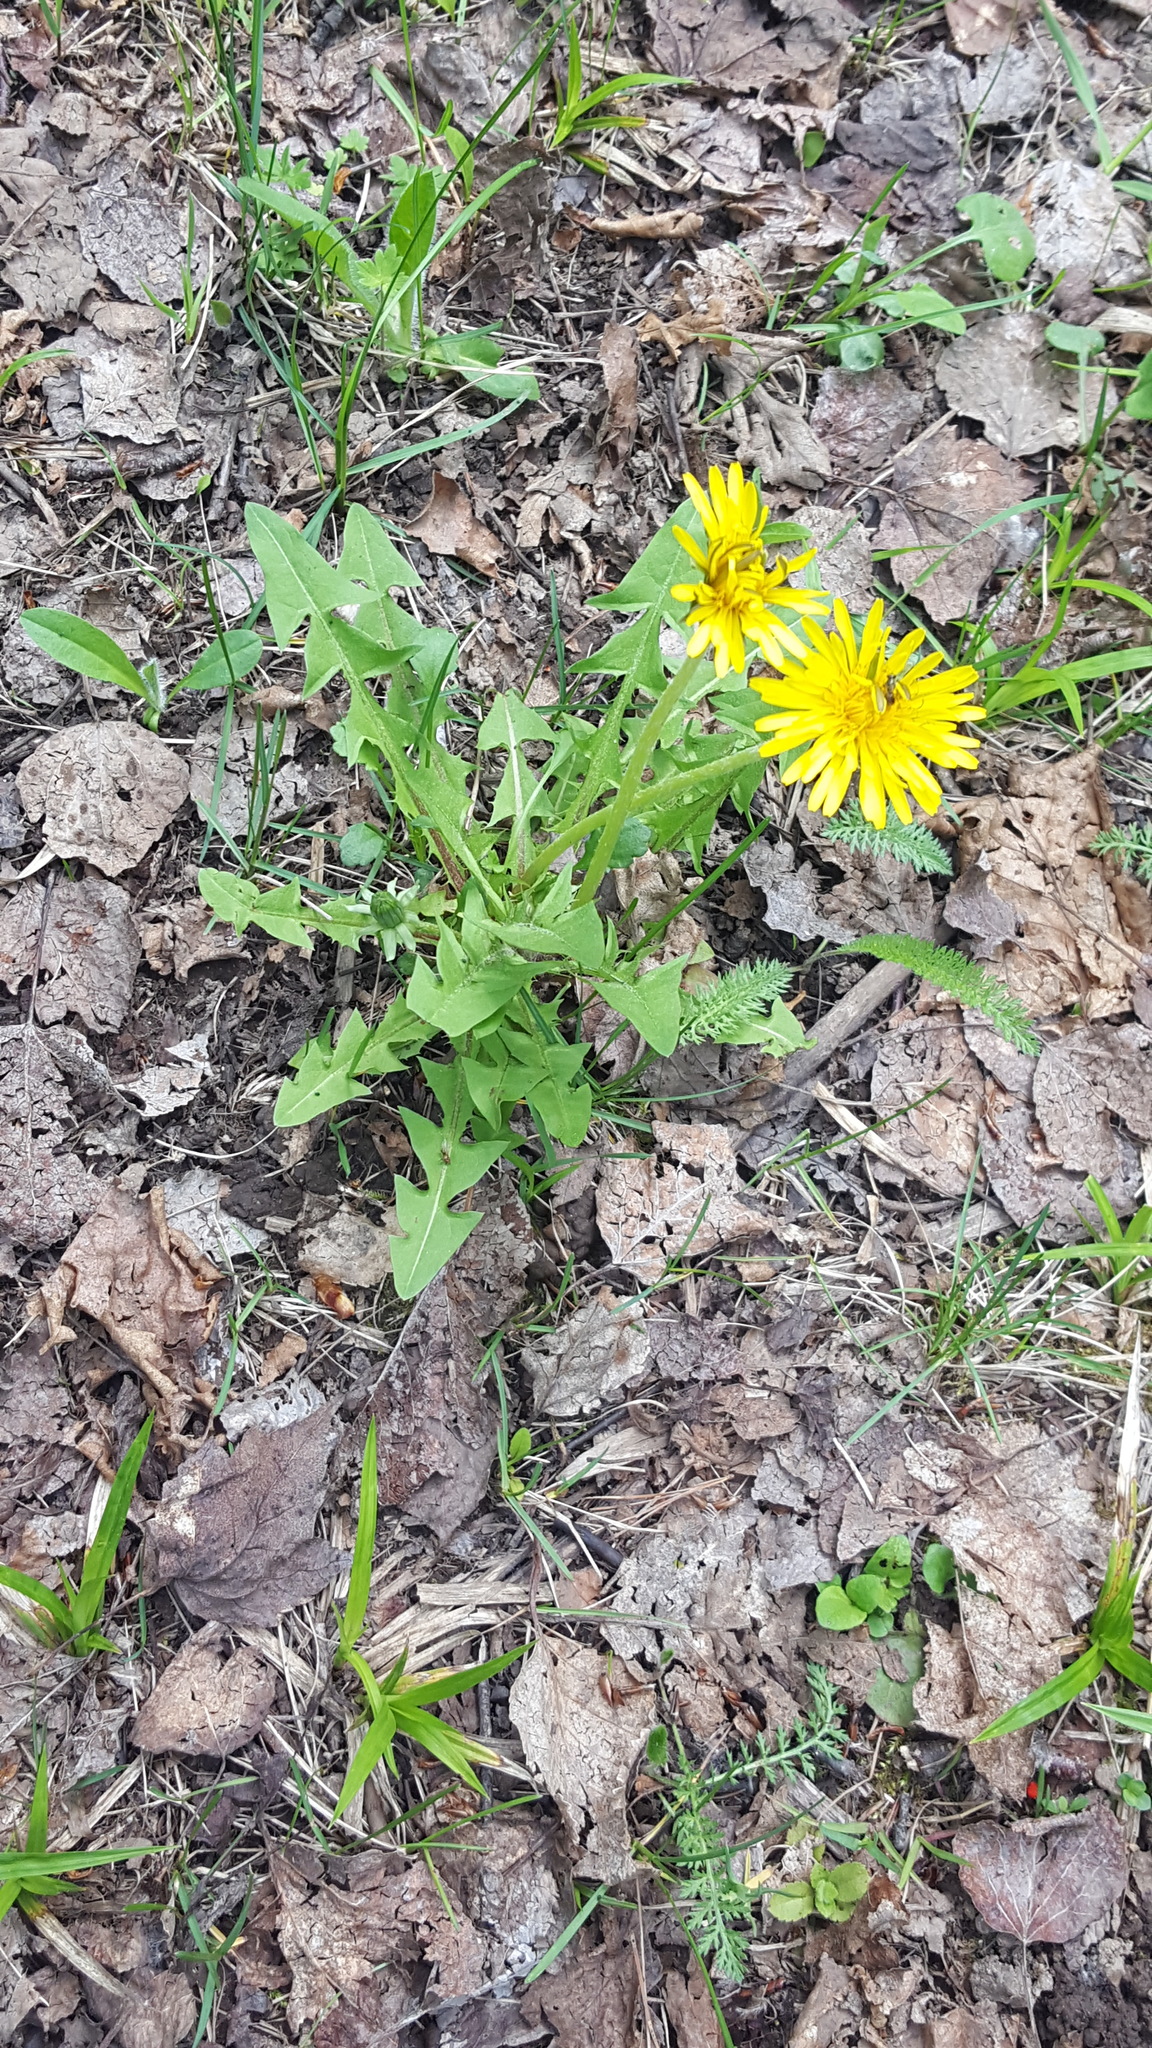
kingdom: Plantae
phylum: Tracheophyta
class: Magnoliopsida
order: Asterales
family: Asteraceae
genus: Taraxacum
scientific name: Taraxacum officinale
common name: Common dandelion
